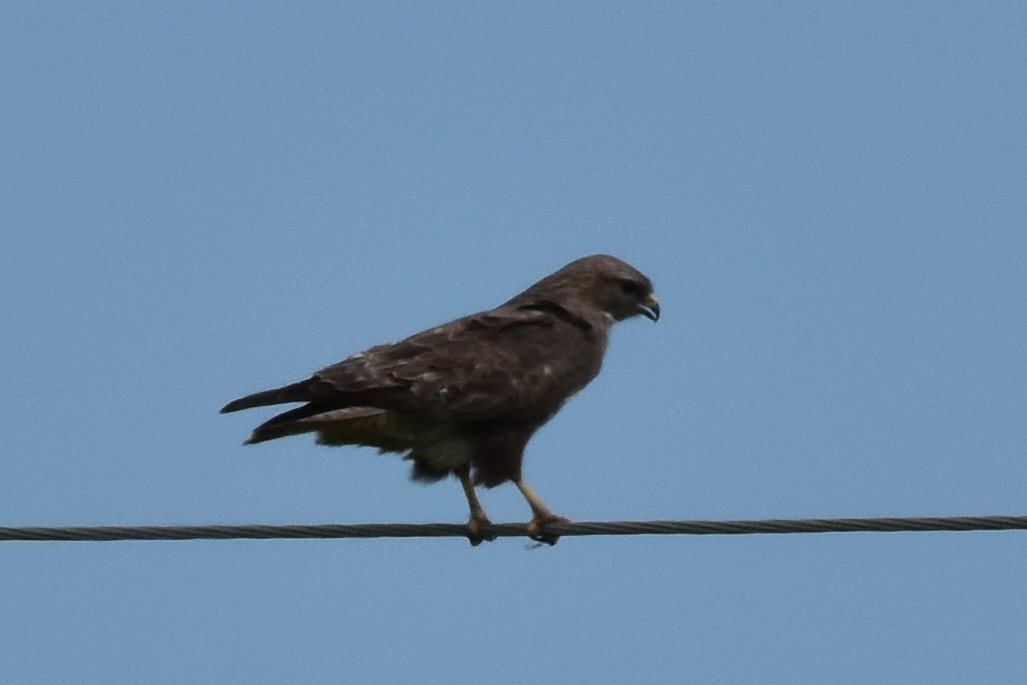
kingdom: Animalia
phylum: Chordata
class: Aves
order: Accipitriformes
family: Accipitridae
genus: Buteo
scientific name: Buteo buteo
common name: Common buzzard
